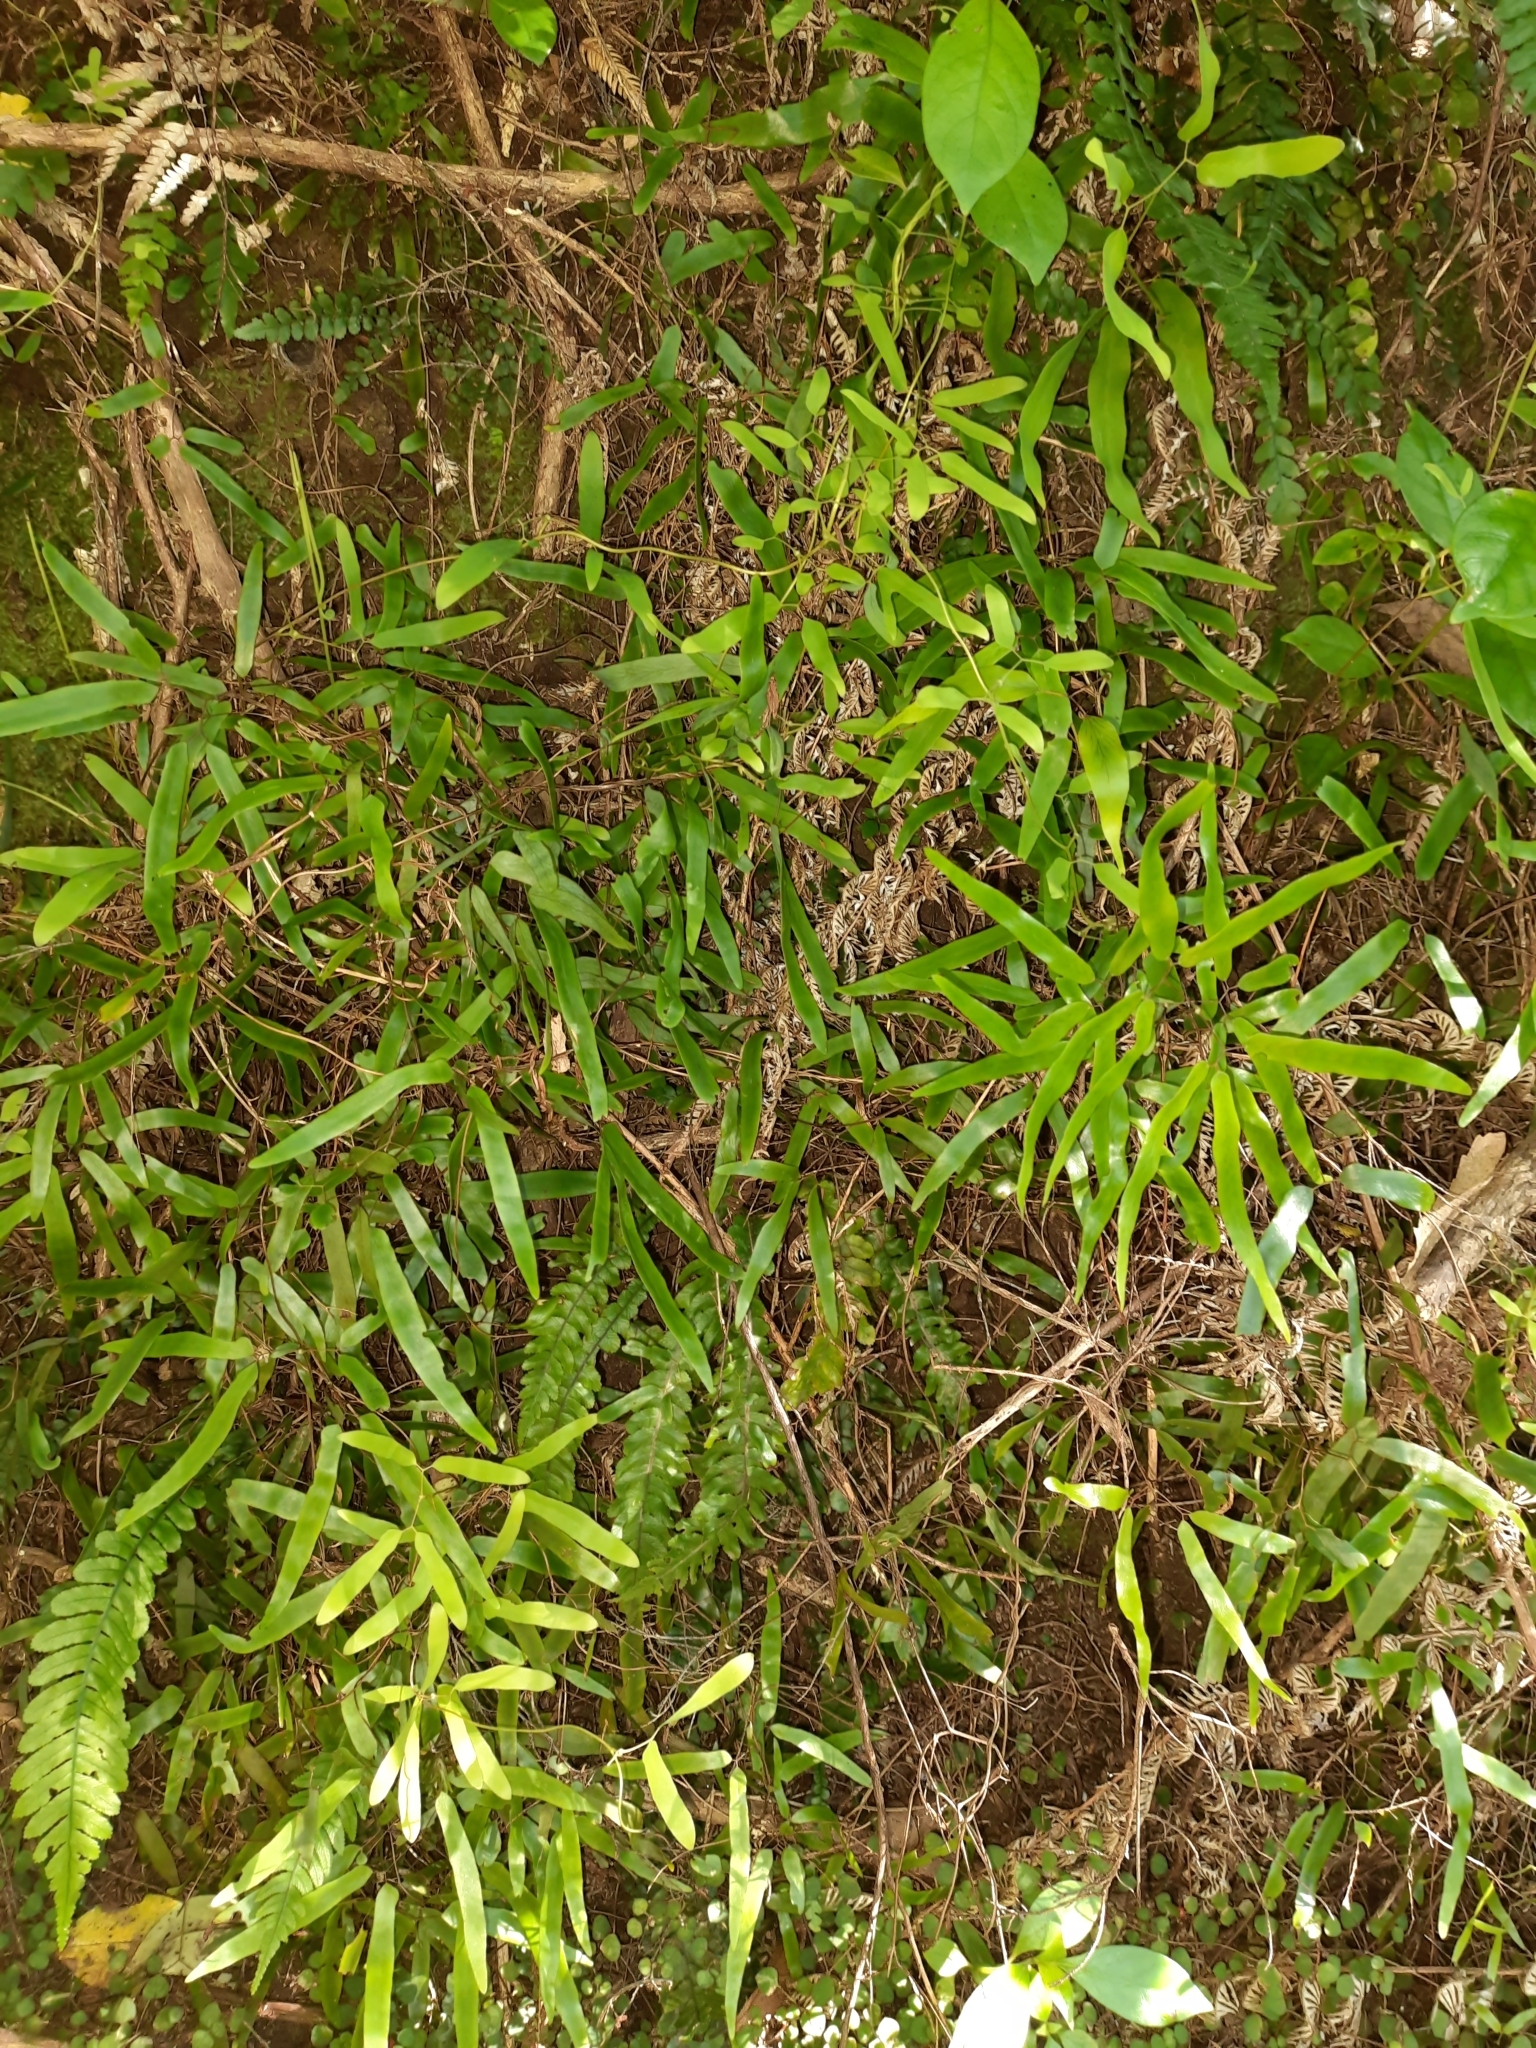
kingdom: Plantae
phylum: Tracheophyta
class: Polypodiopsida
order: Schizaeales
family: Lygodiaceae
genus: Lygodium
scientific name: Lygodium articulatum
